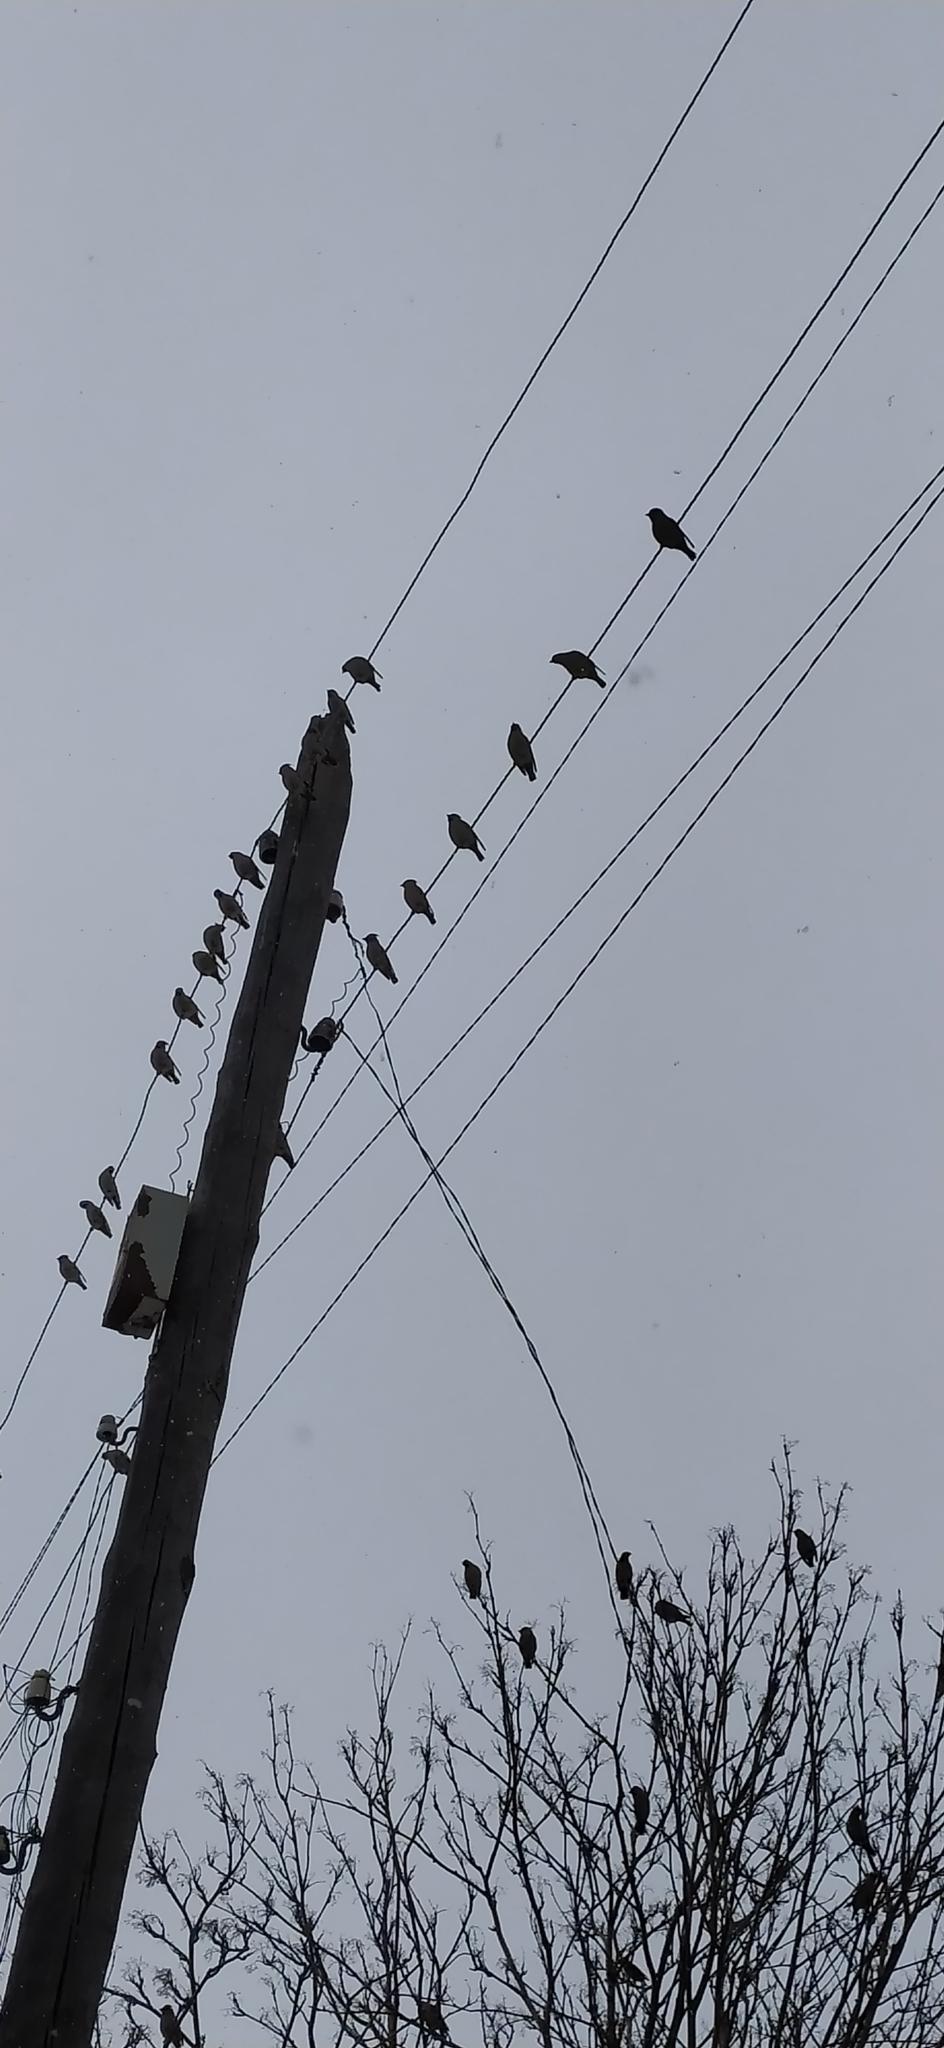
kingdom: Animalia
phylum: Chordata
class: Aves
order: Passeriformes
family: Bombycillidae
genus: Bombycilla
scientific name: Bombycilla garrulus
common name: Bohemian waxwing
